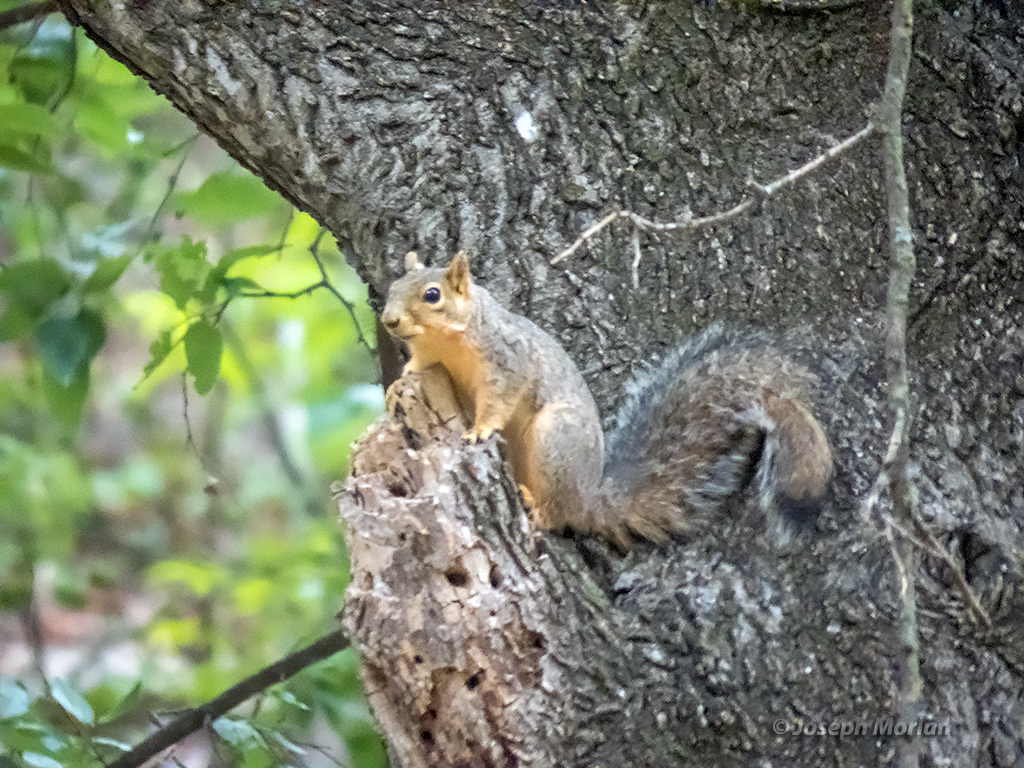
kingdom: Animalia
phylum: Chordata
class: Mammalia
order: Rodentia
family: Sciuridae
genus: Sciurus
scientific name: Sciurus niger
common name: Fox squirrel
